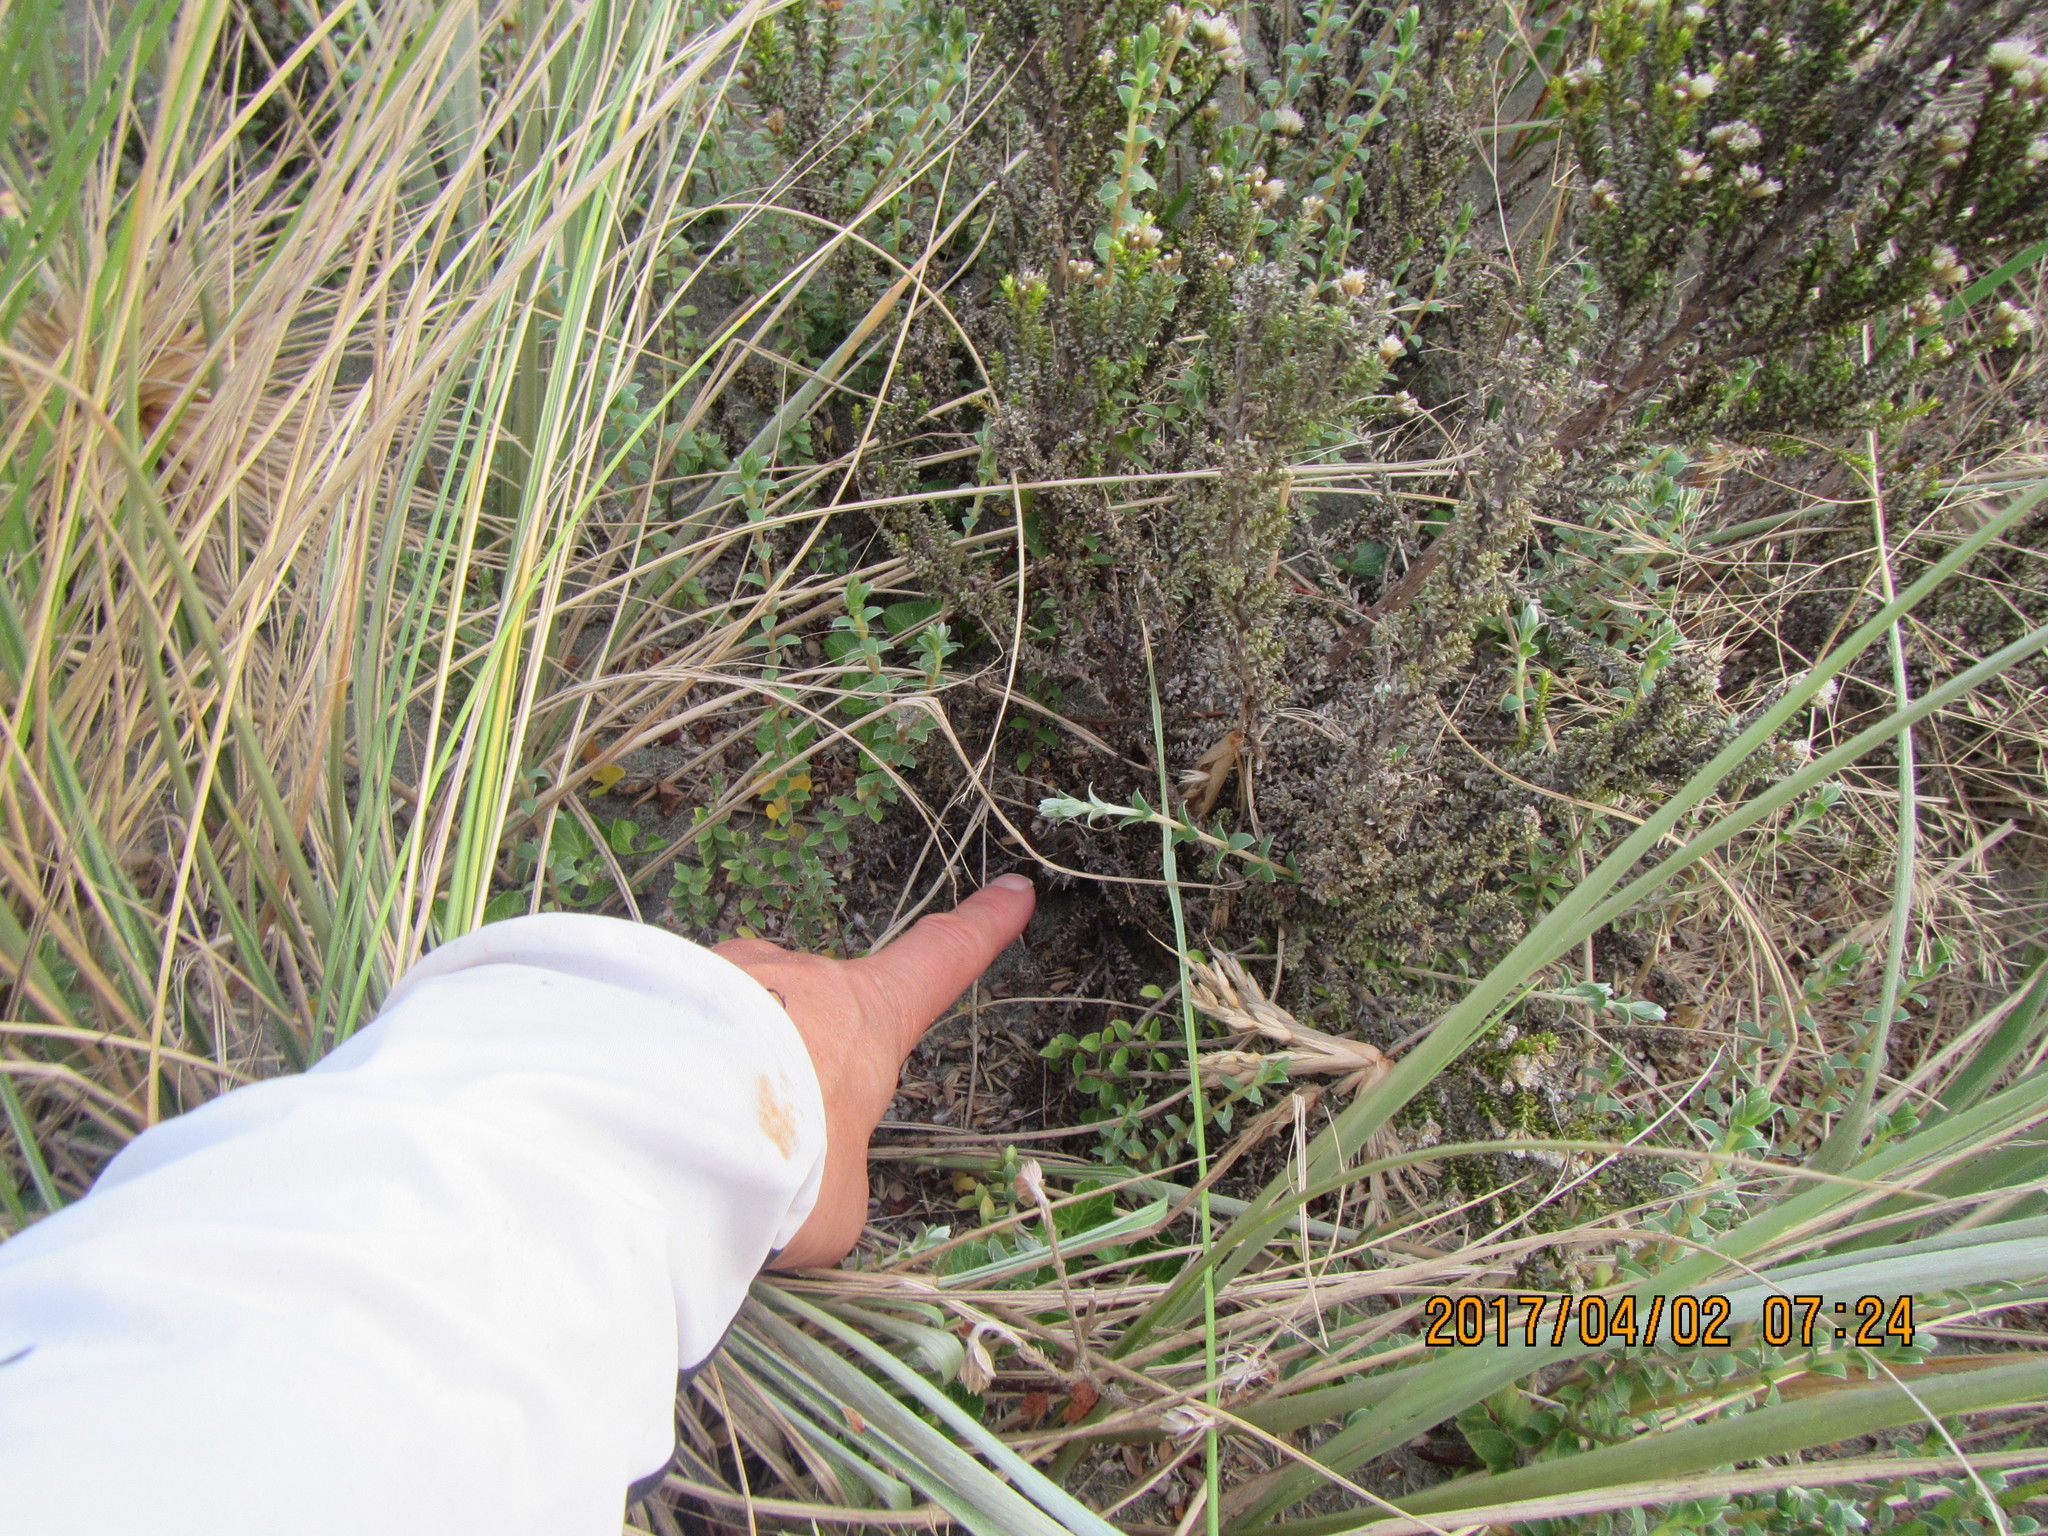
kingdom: Animalia
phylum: Arthropoda
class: Arachnida
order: Araneae
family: Theridiidae
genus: Latrodectus
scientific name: Latrodectus katipo
